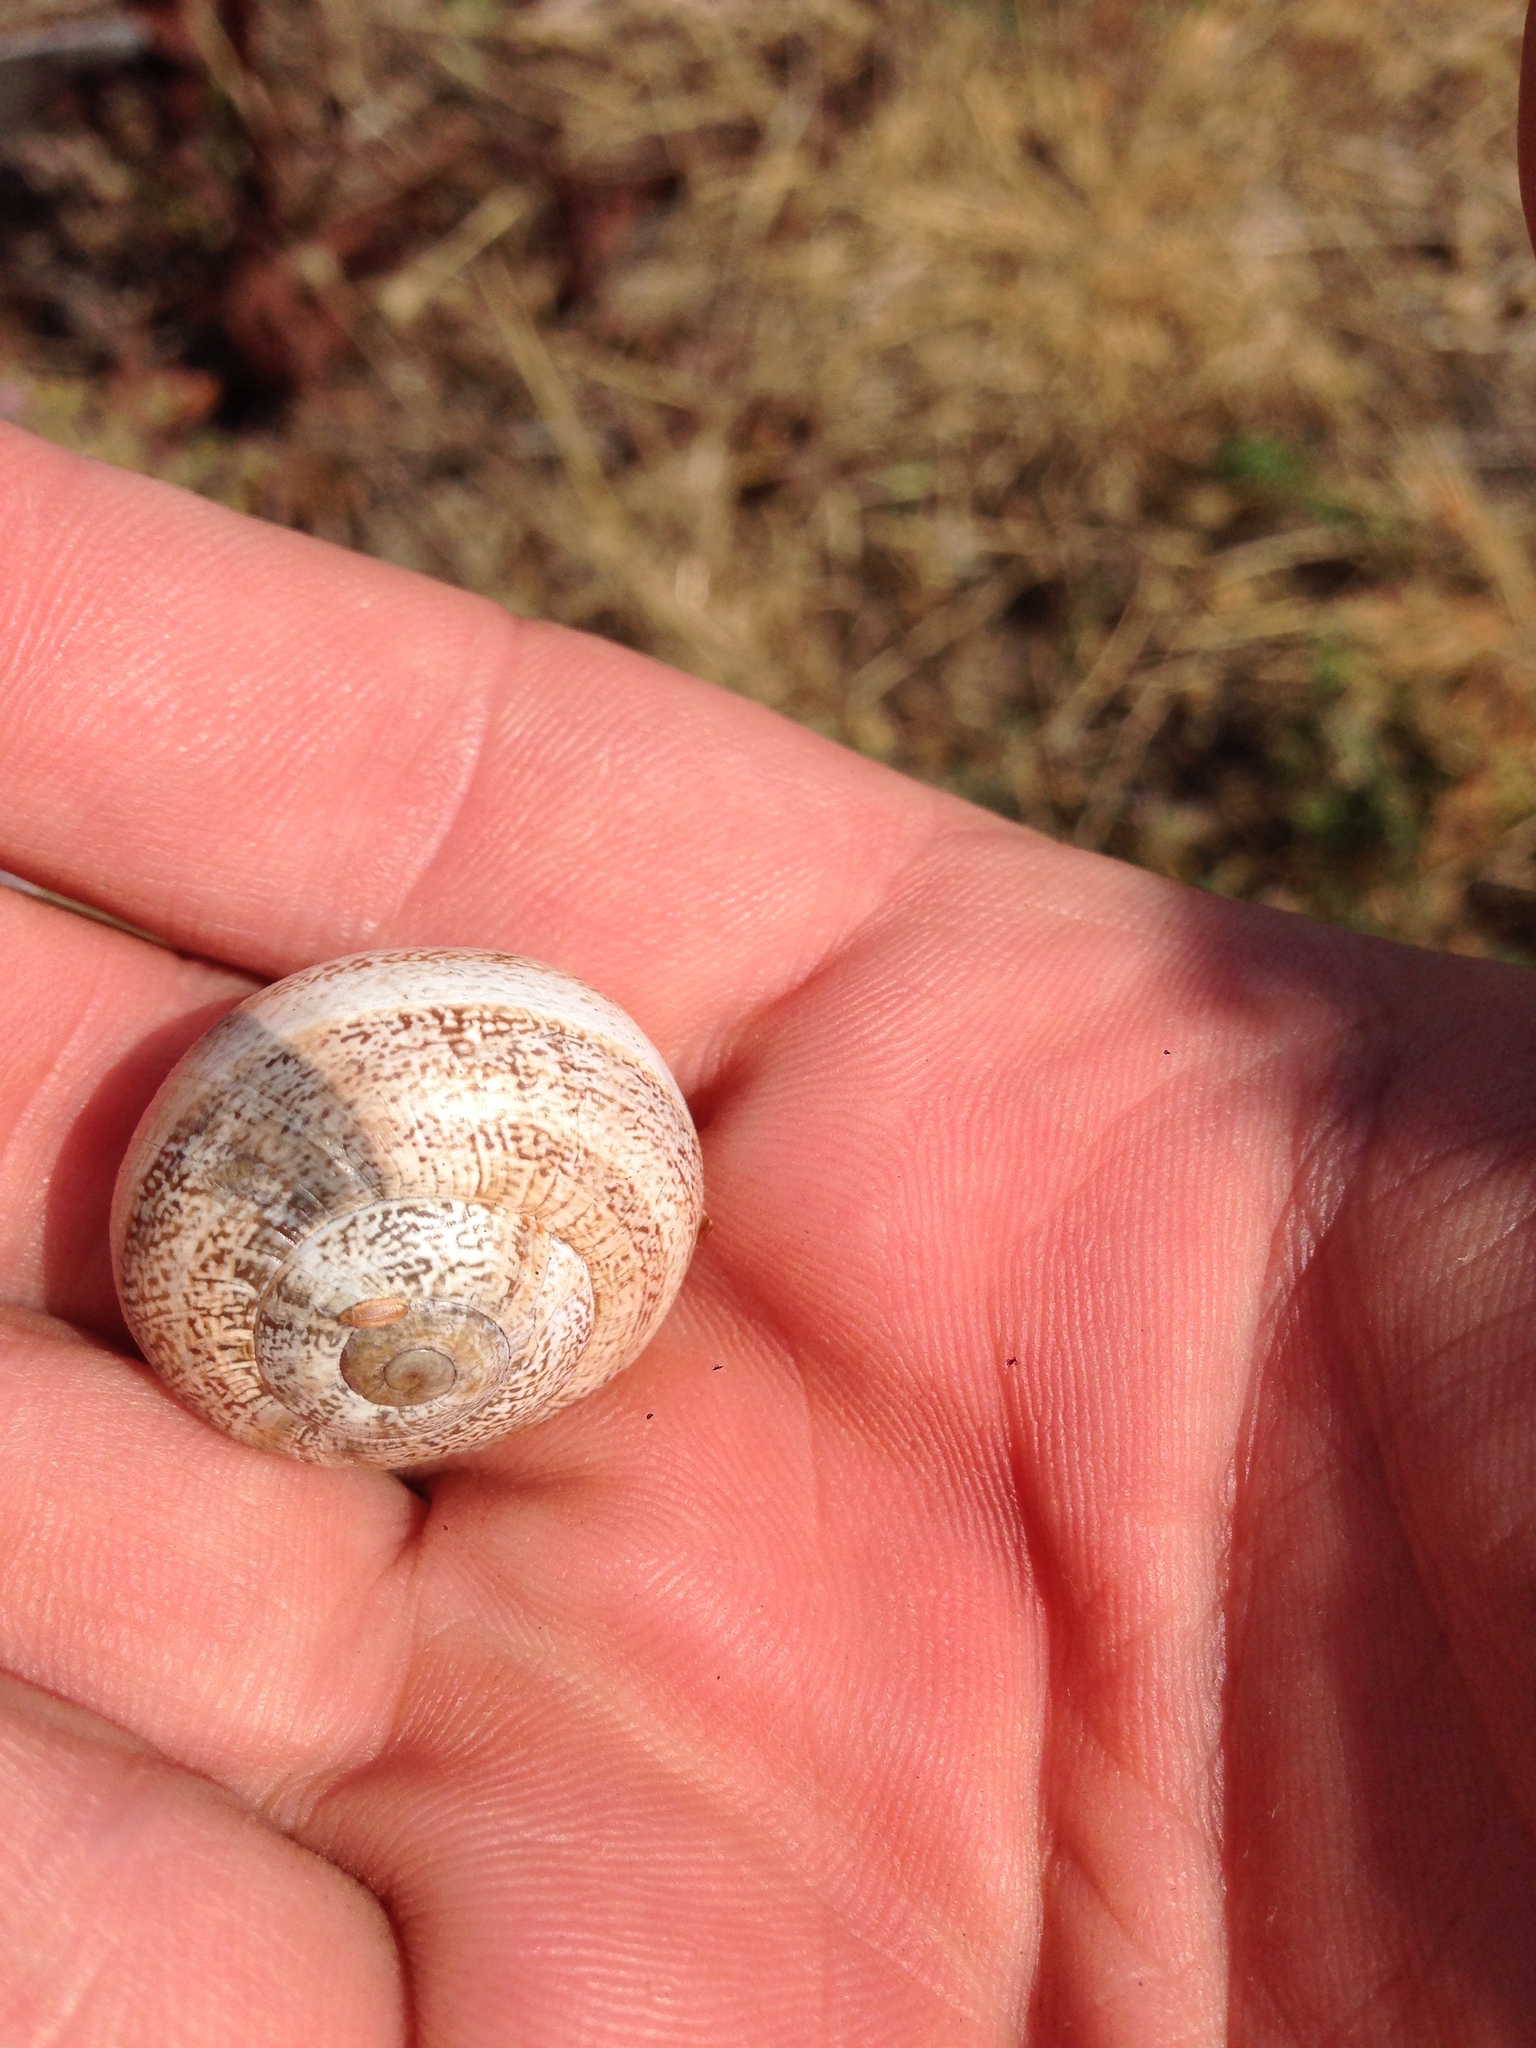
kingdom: Animalia
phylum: Mollusca
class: Gastropoda
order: Stylommatophora
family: Helicidae
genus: Otala
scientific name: Otala lactea
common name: Milk snail
